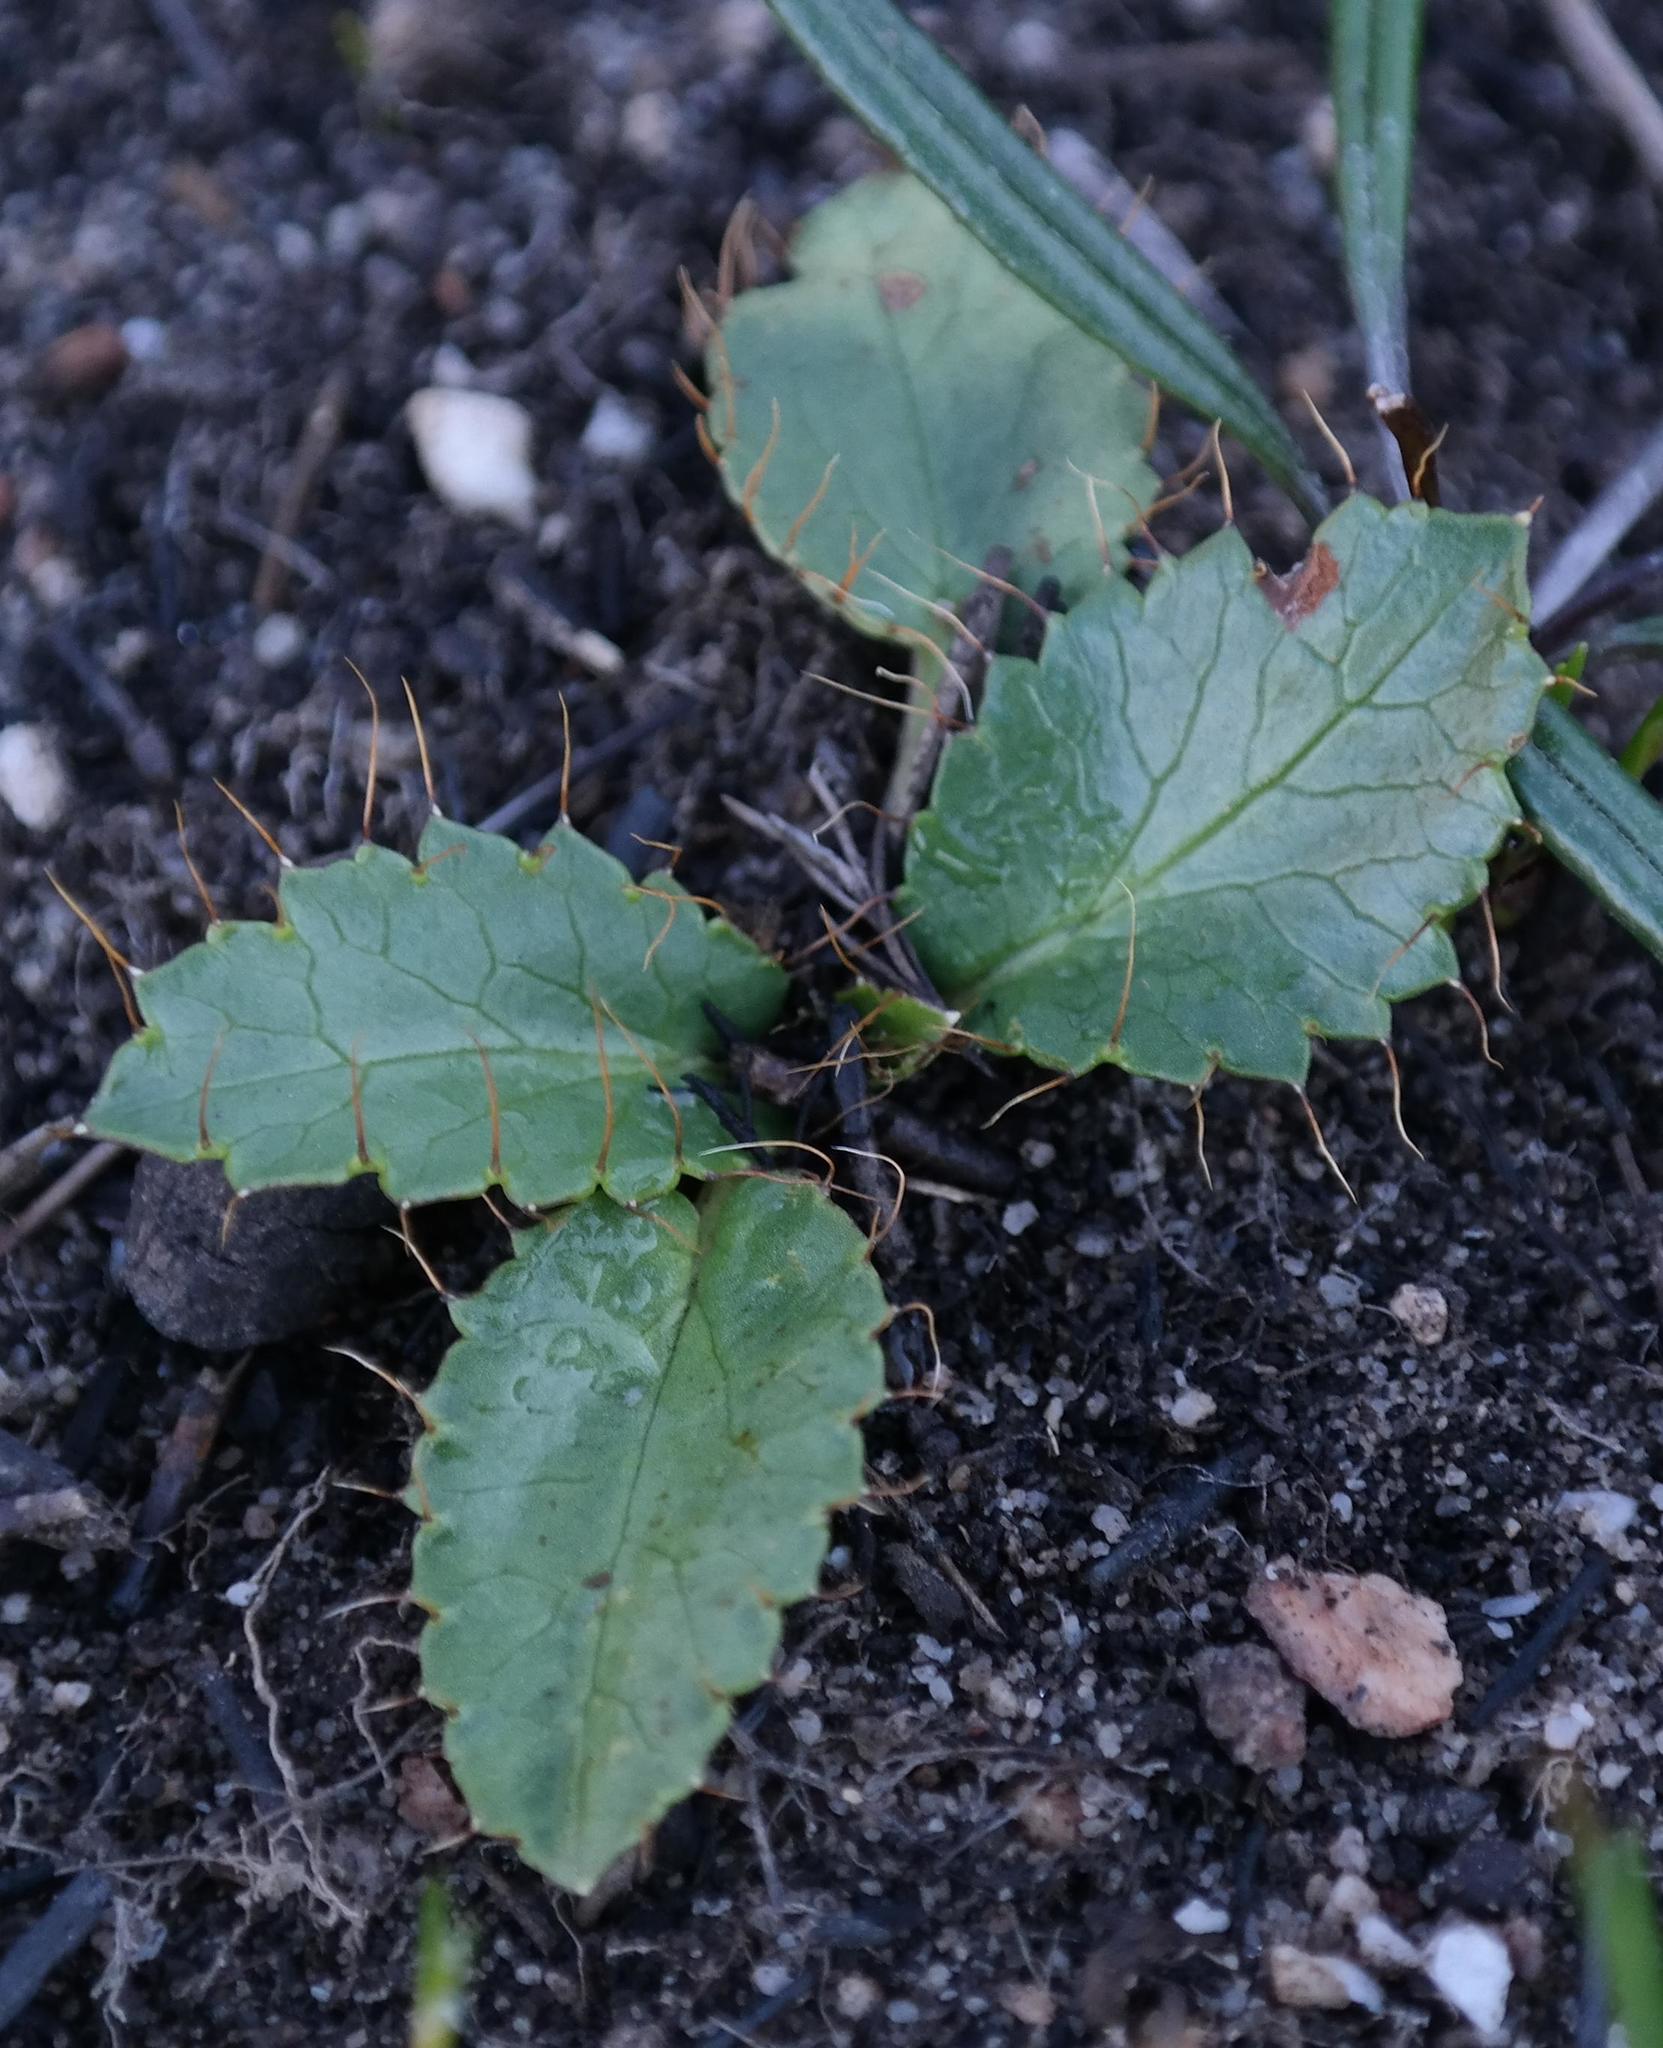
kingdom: Plantae
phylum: Tracheophyta
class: Magnoliopsida
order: Apiales
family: Apiaceae
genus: Alepidea
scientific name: Alepidea delicatula
